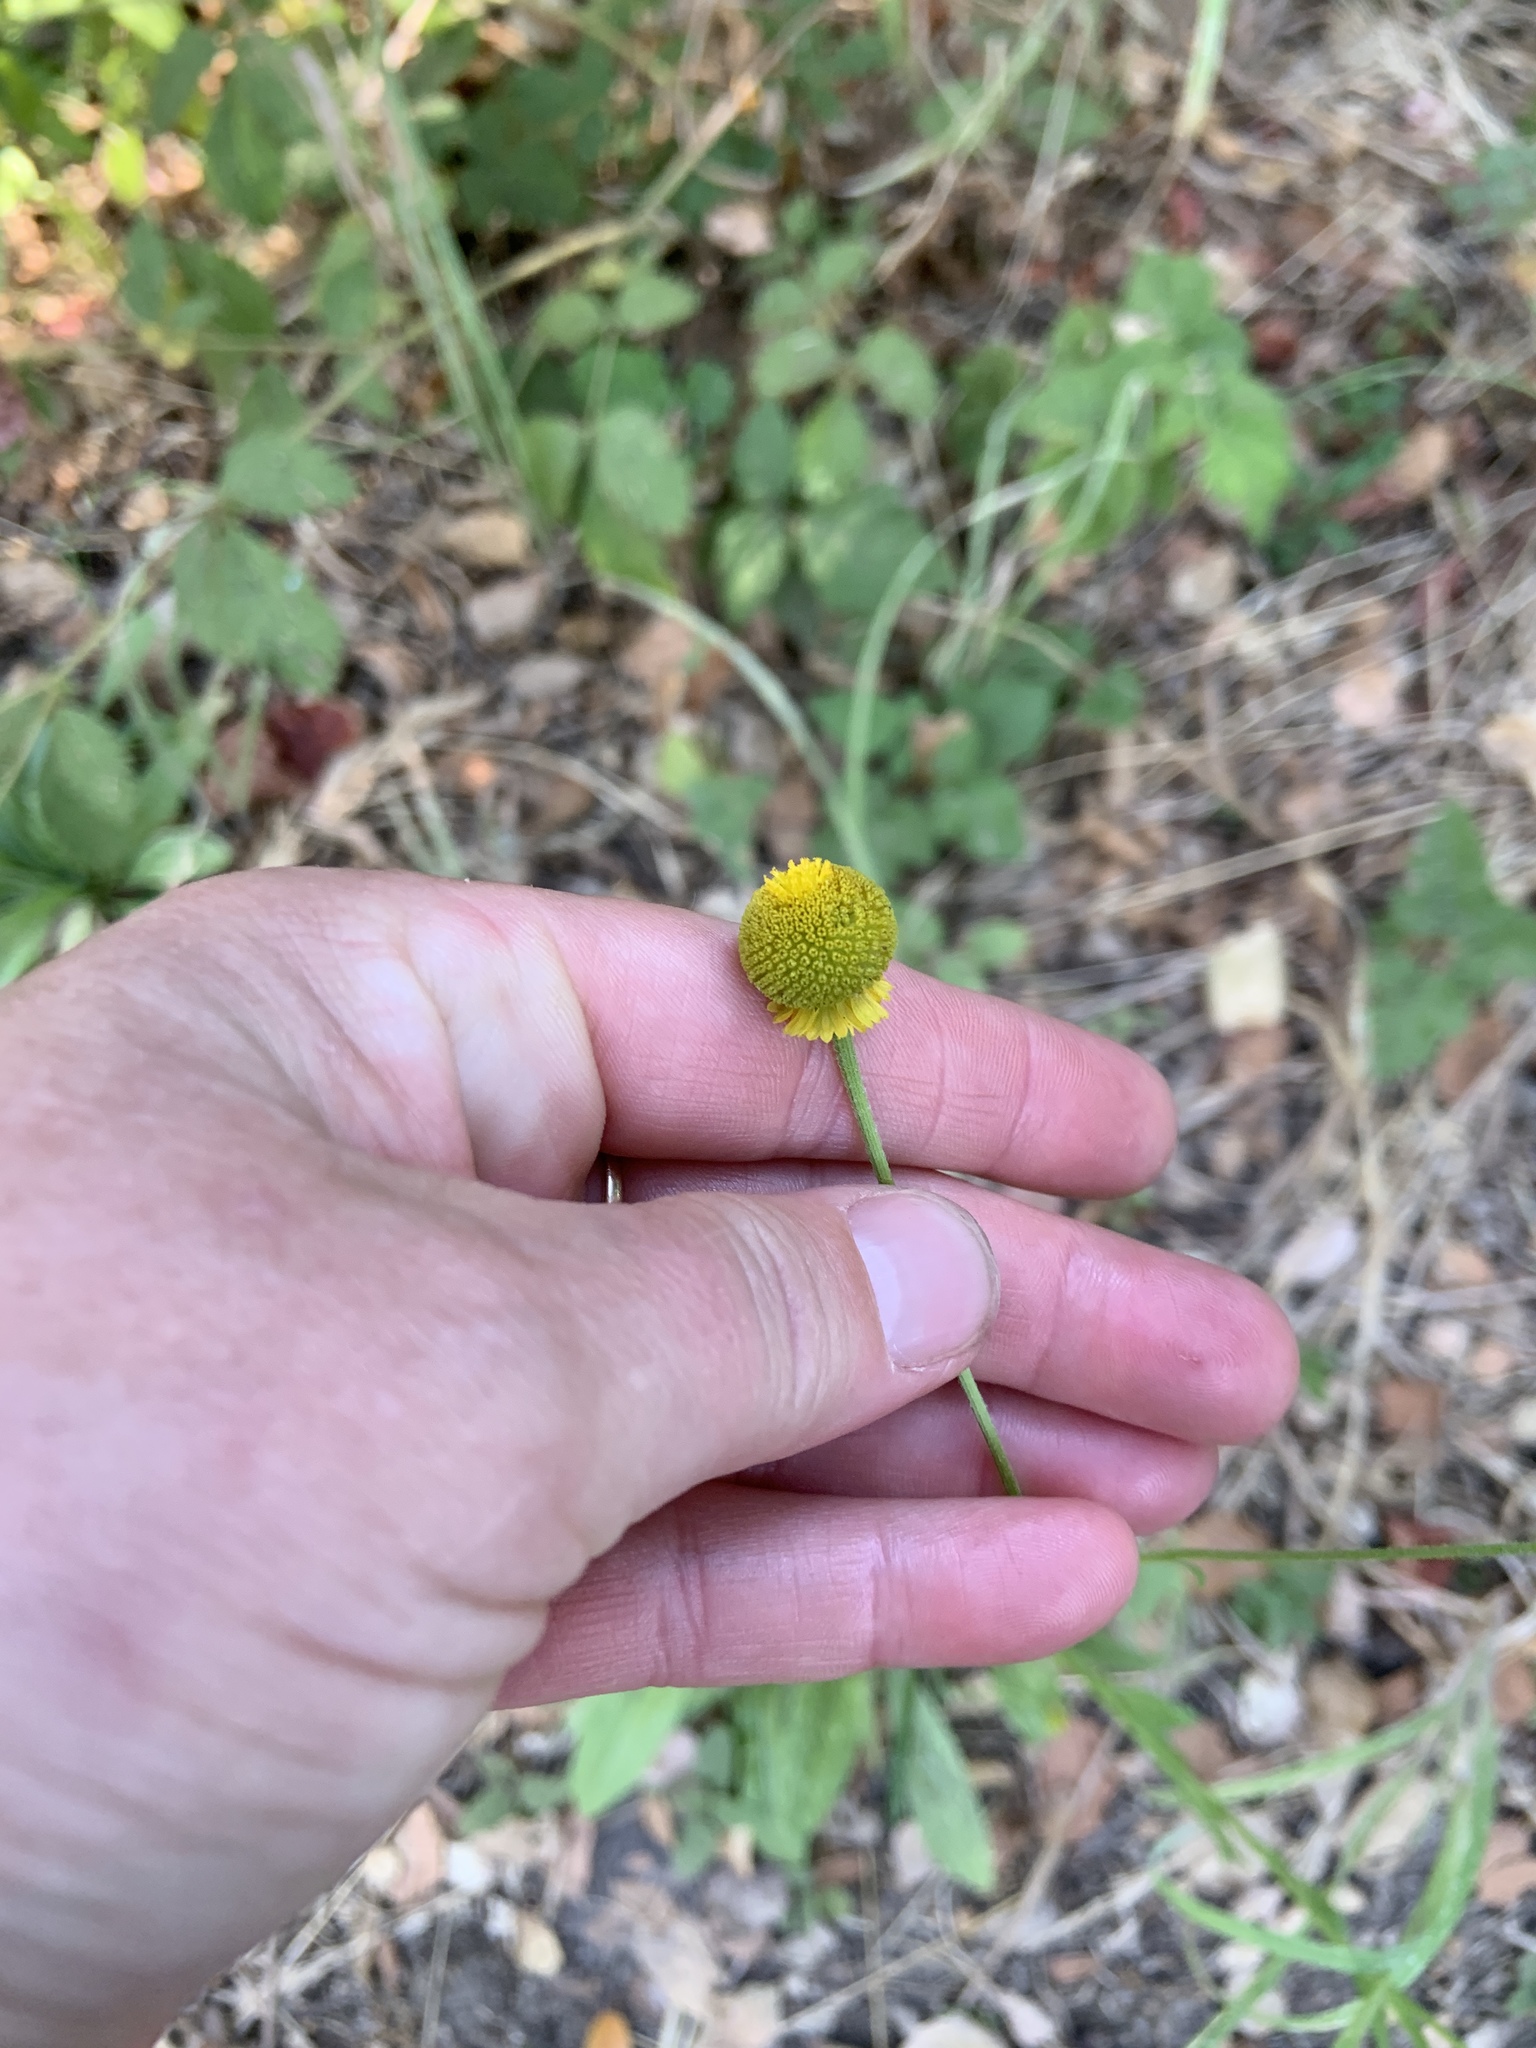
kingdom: Plantae
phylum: Tracheophyta
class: Magnoliopsida
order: Asterales
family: Asteraceae
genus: Helenium
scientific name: Helenium puberulum
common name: Sneezewort
